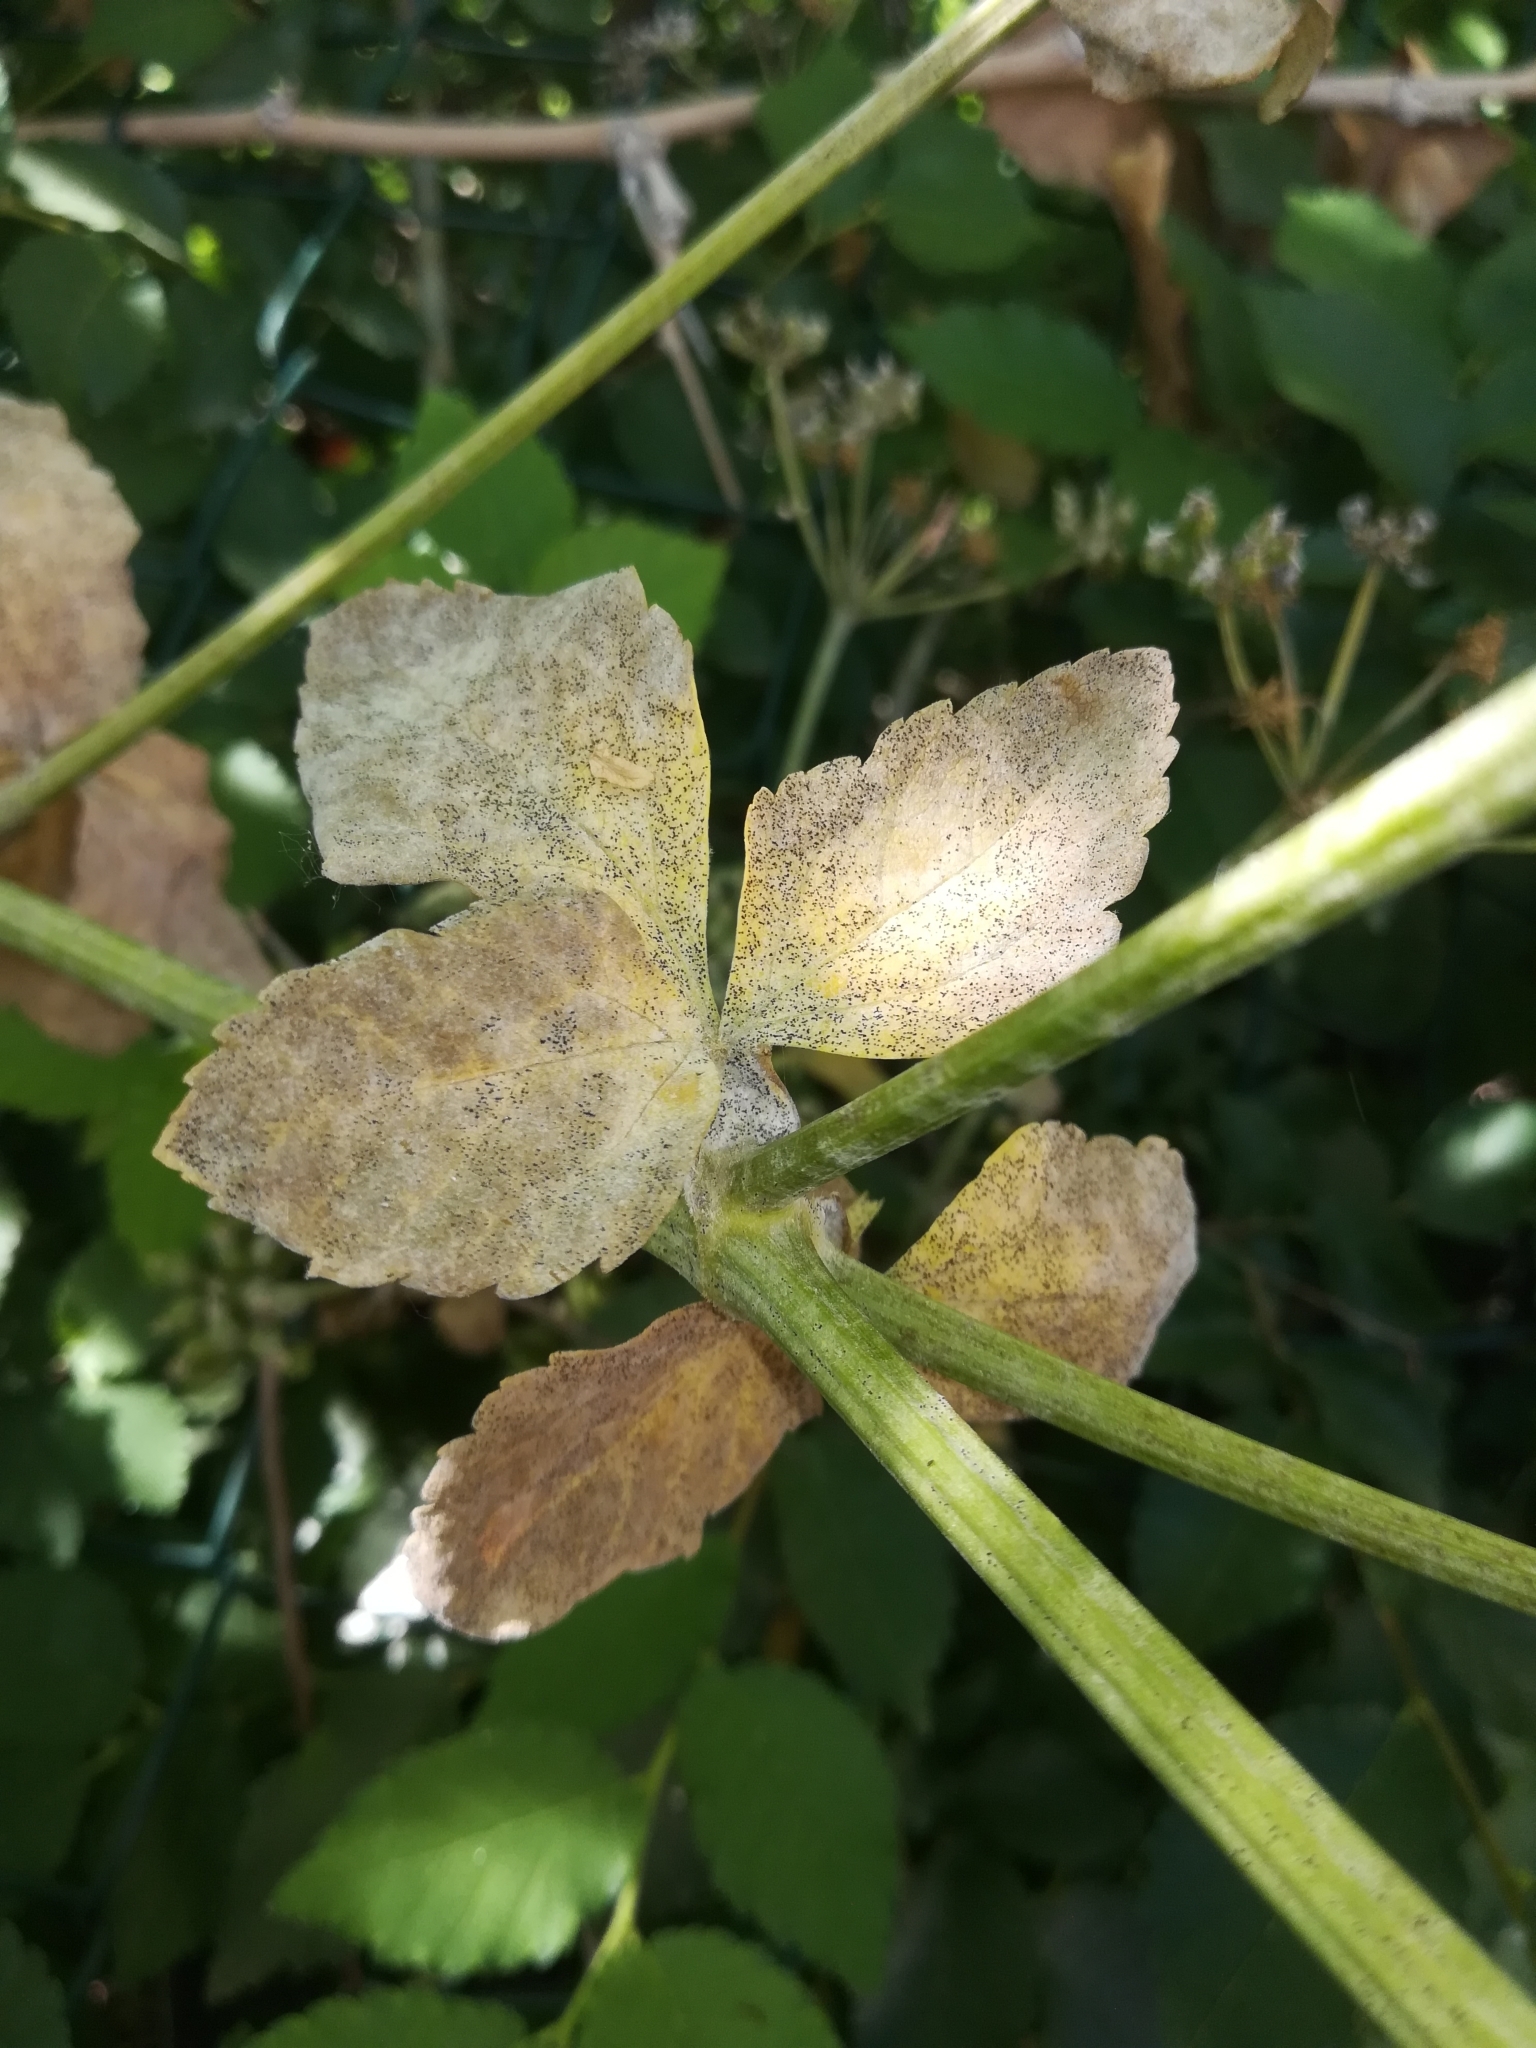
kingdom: Plantae
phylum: Tracheophyta
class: Magnoliopsida
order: Apiales
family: Apiaceae
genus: Smyrnium
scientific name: Smyrnium olusatrum
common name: Alexanders
